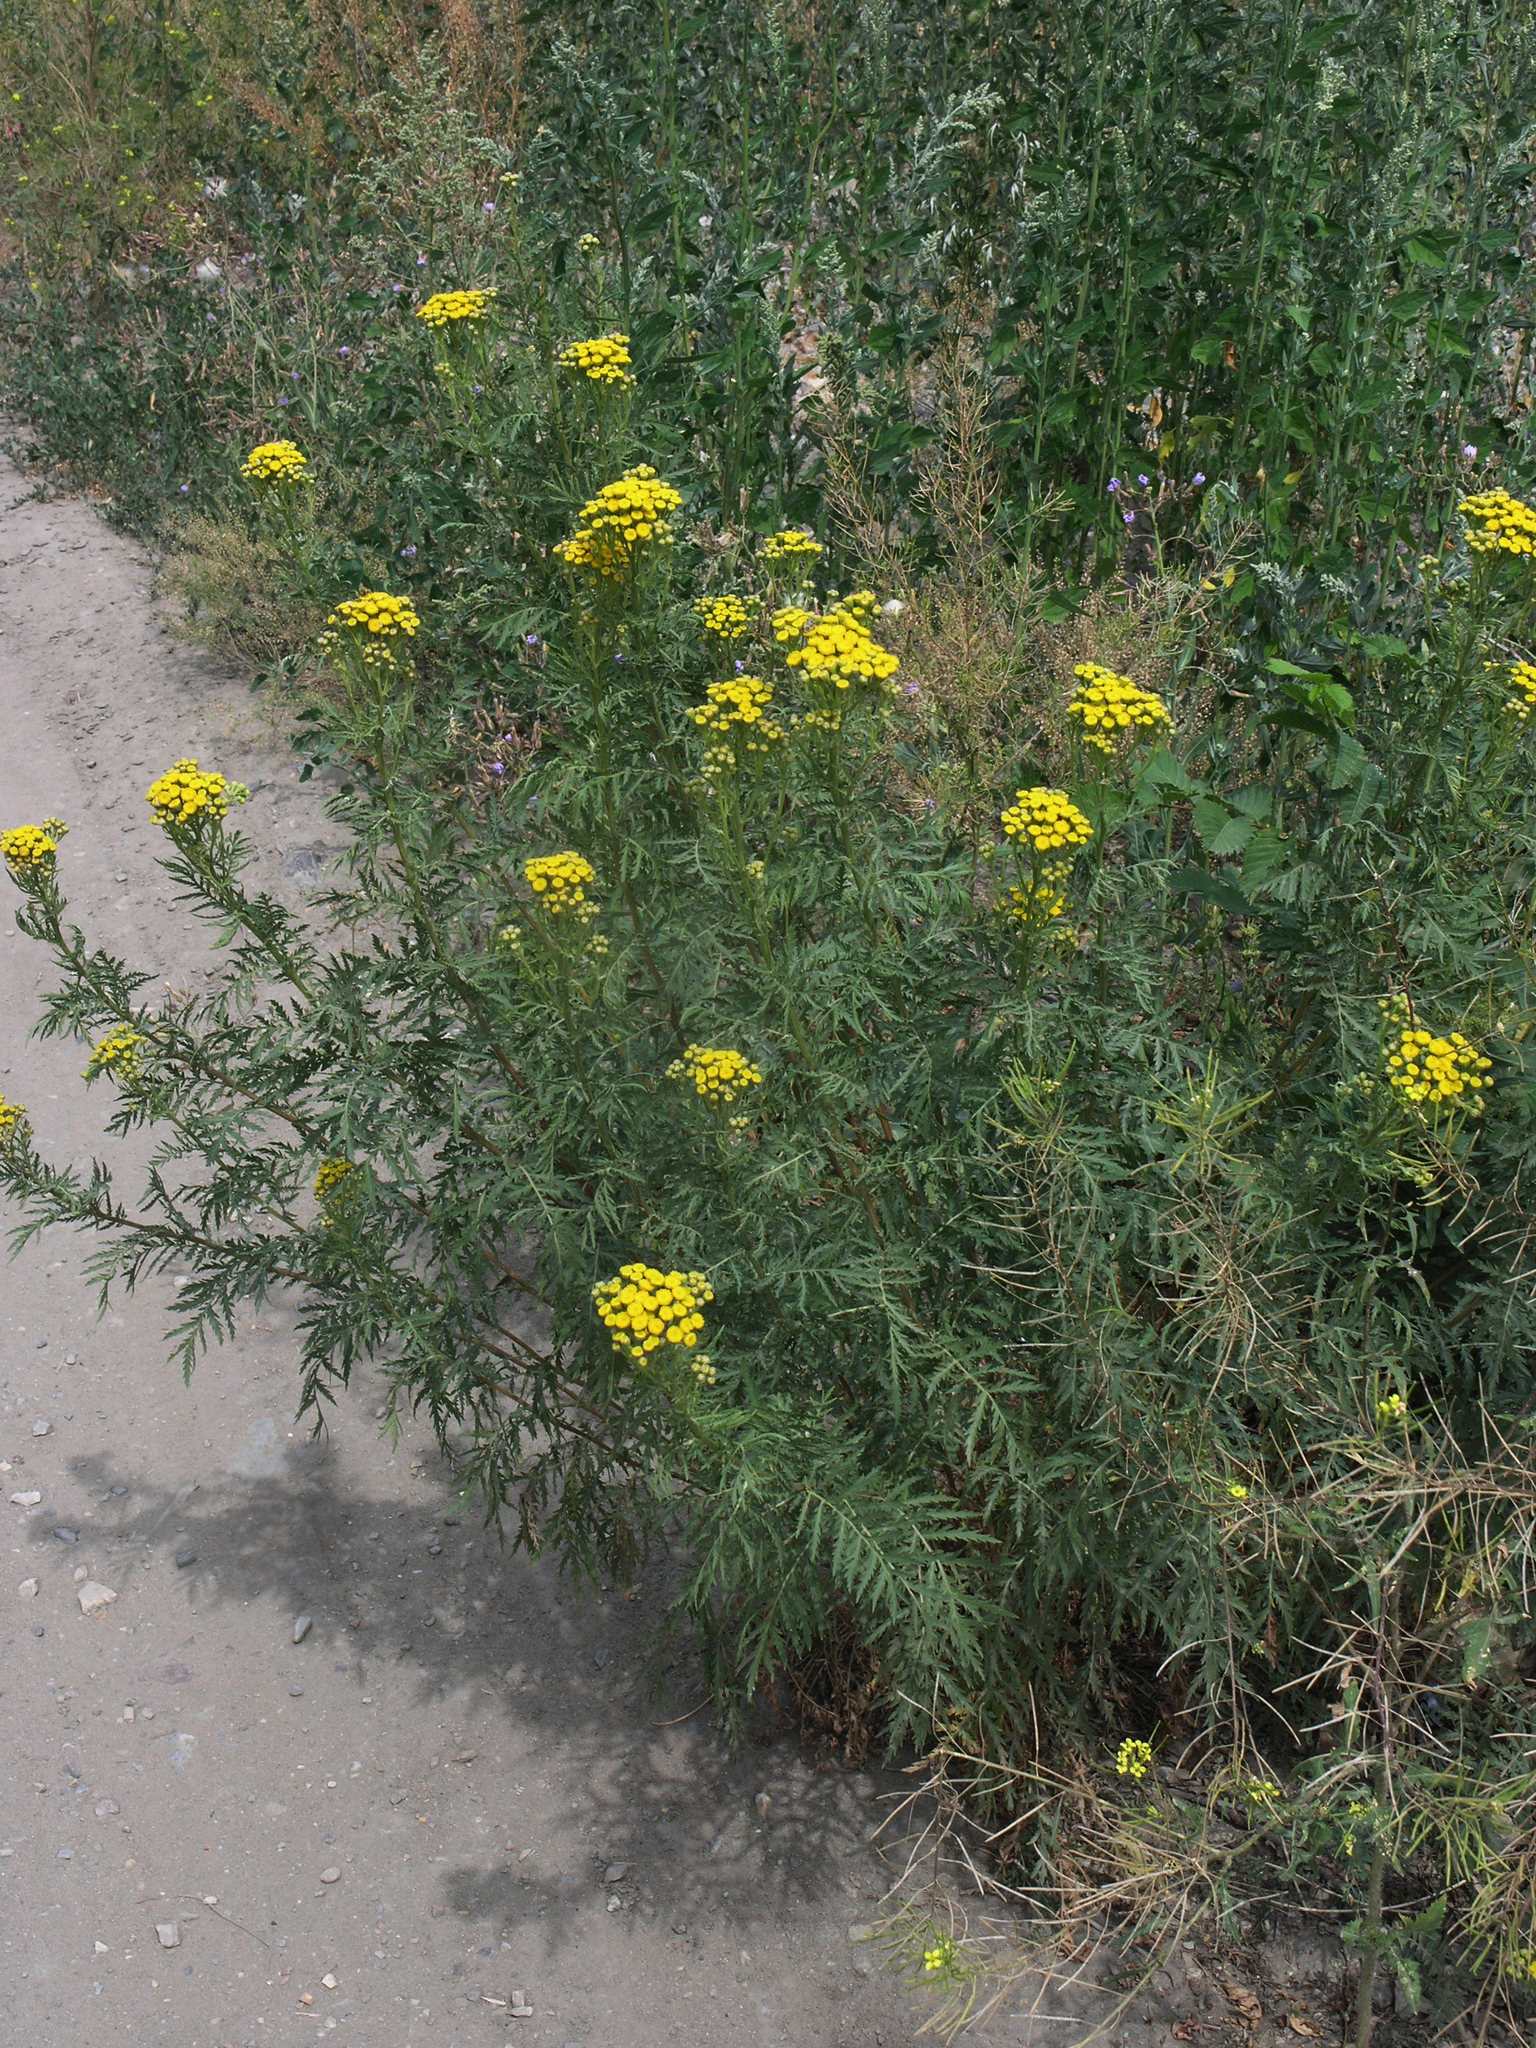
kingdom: Plantae
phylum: Tracheophyta
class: Magnoliopsida
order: Asterales
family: Asteraceae
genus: Tanacetum
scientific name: Tanacetum vulgare
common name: Common tansy
